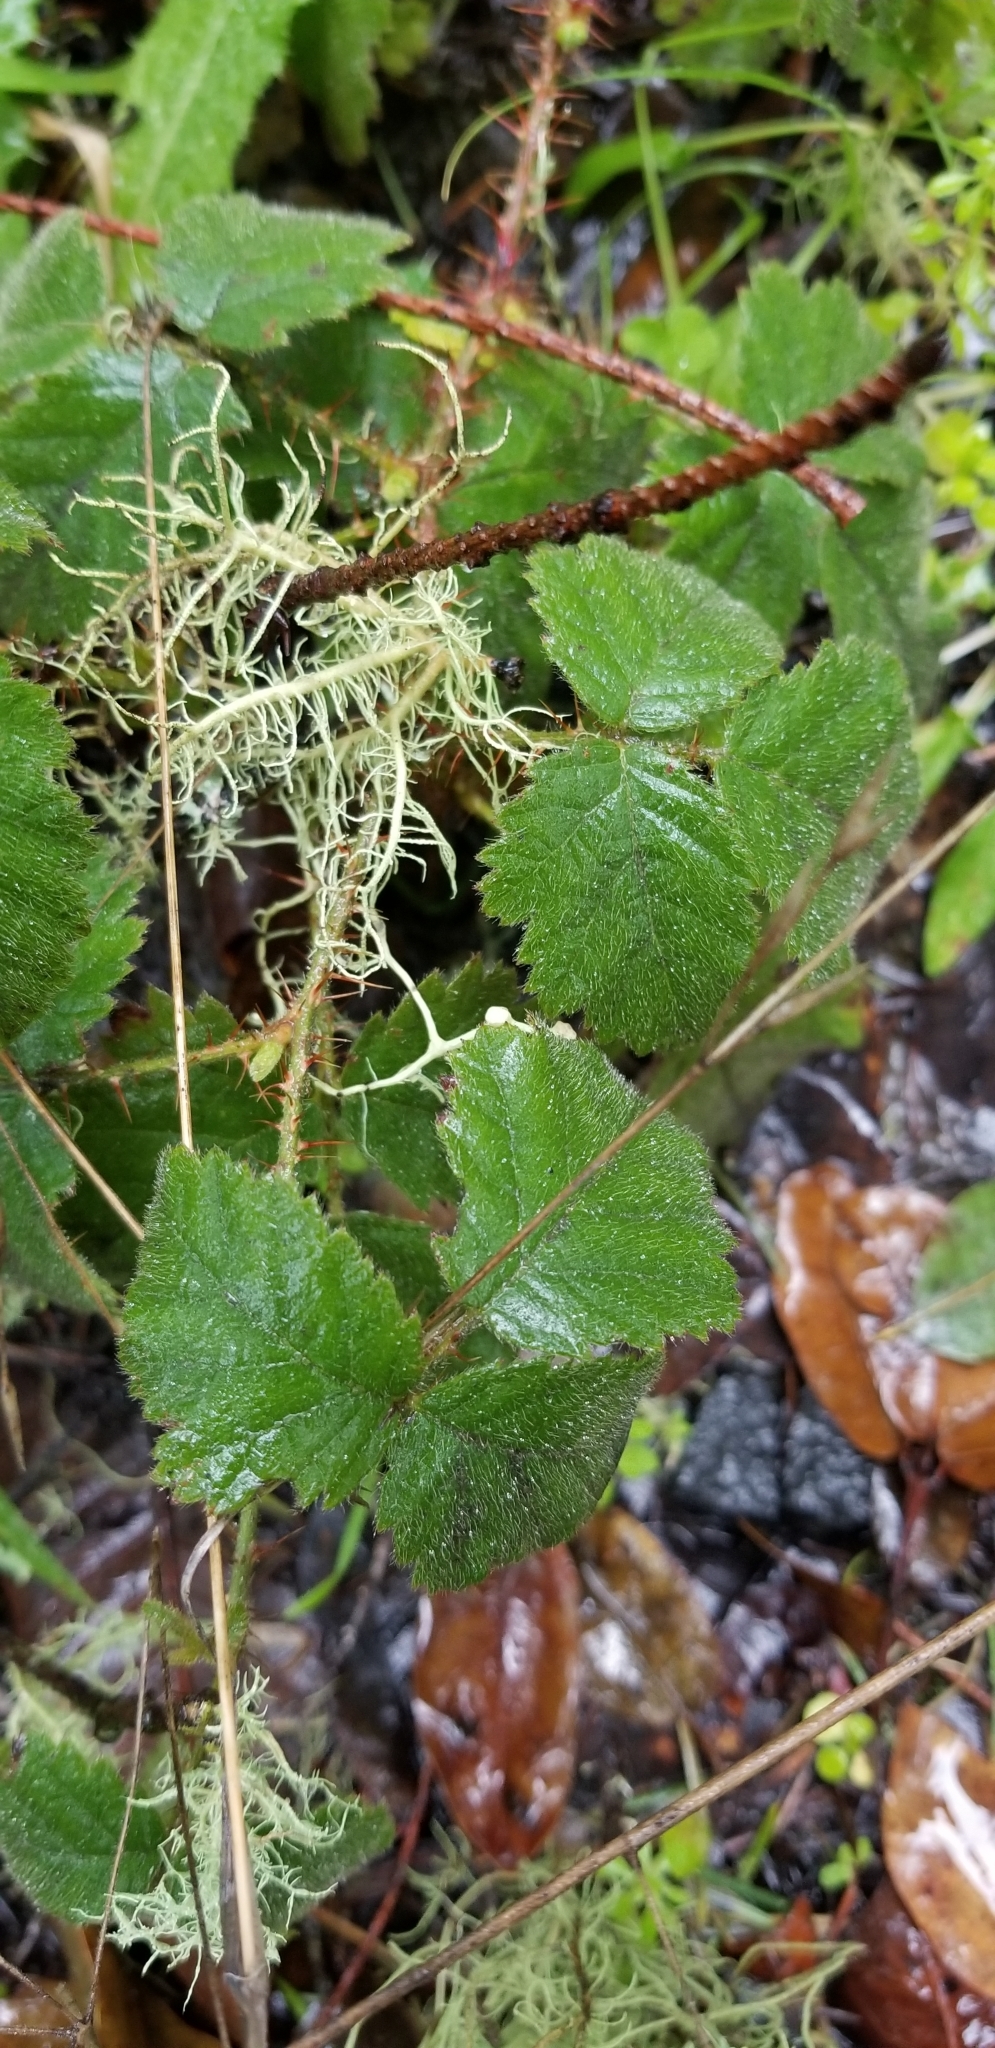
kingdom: Plantae
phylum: Tracheophyta
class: Magnoliopsida
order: Rosales
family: Rosaceae
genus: Rubus
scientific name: Rubus ursinus
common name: Pacific blackberry
